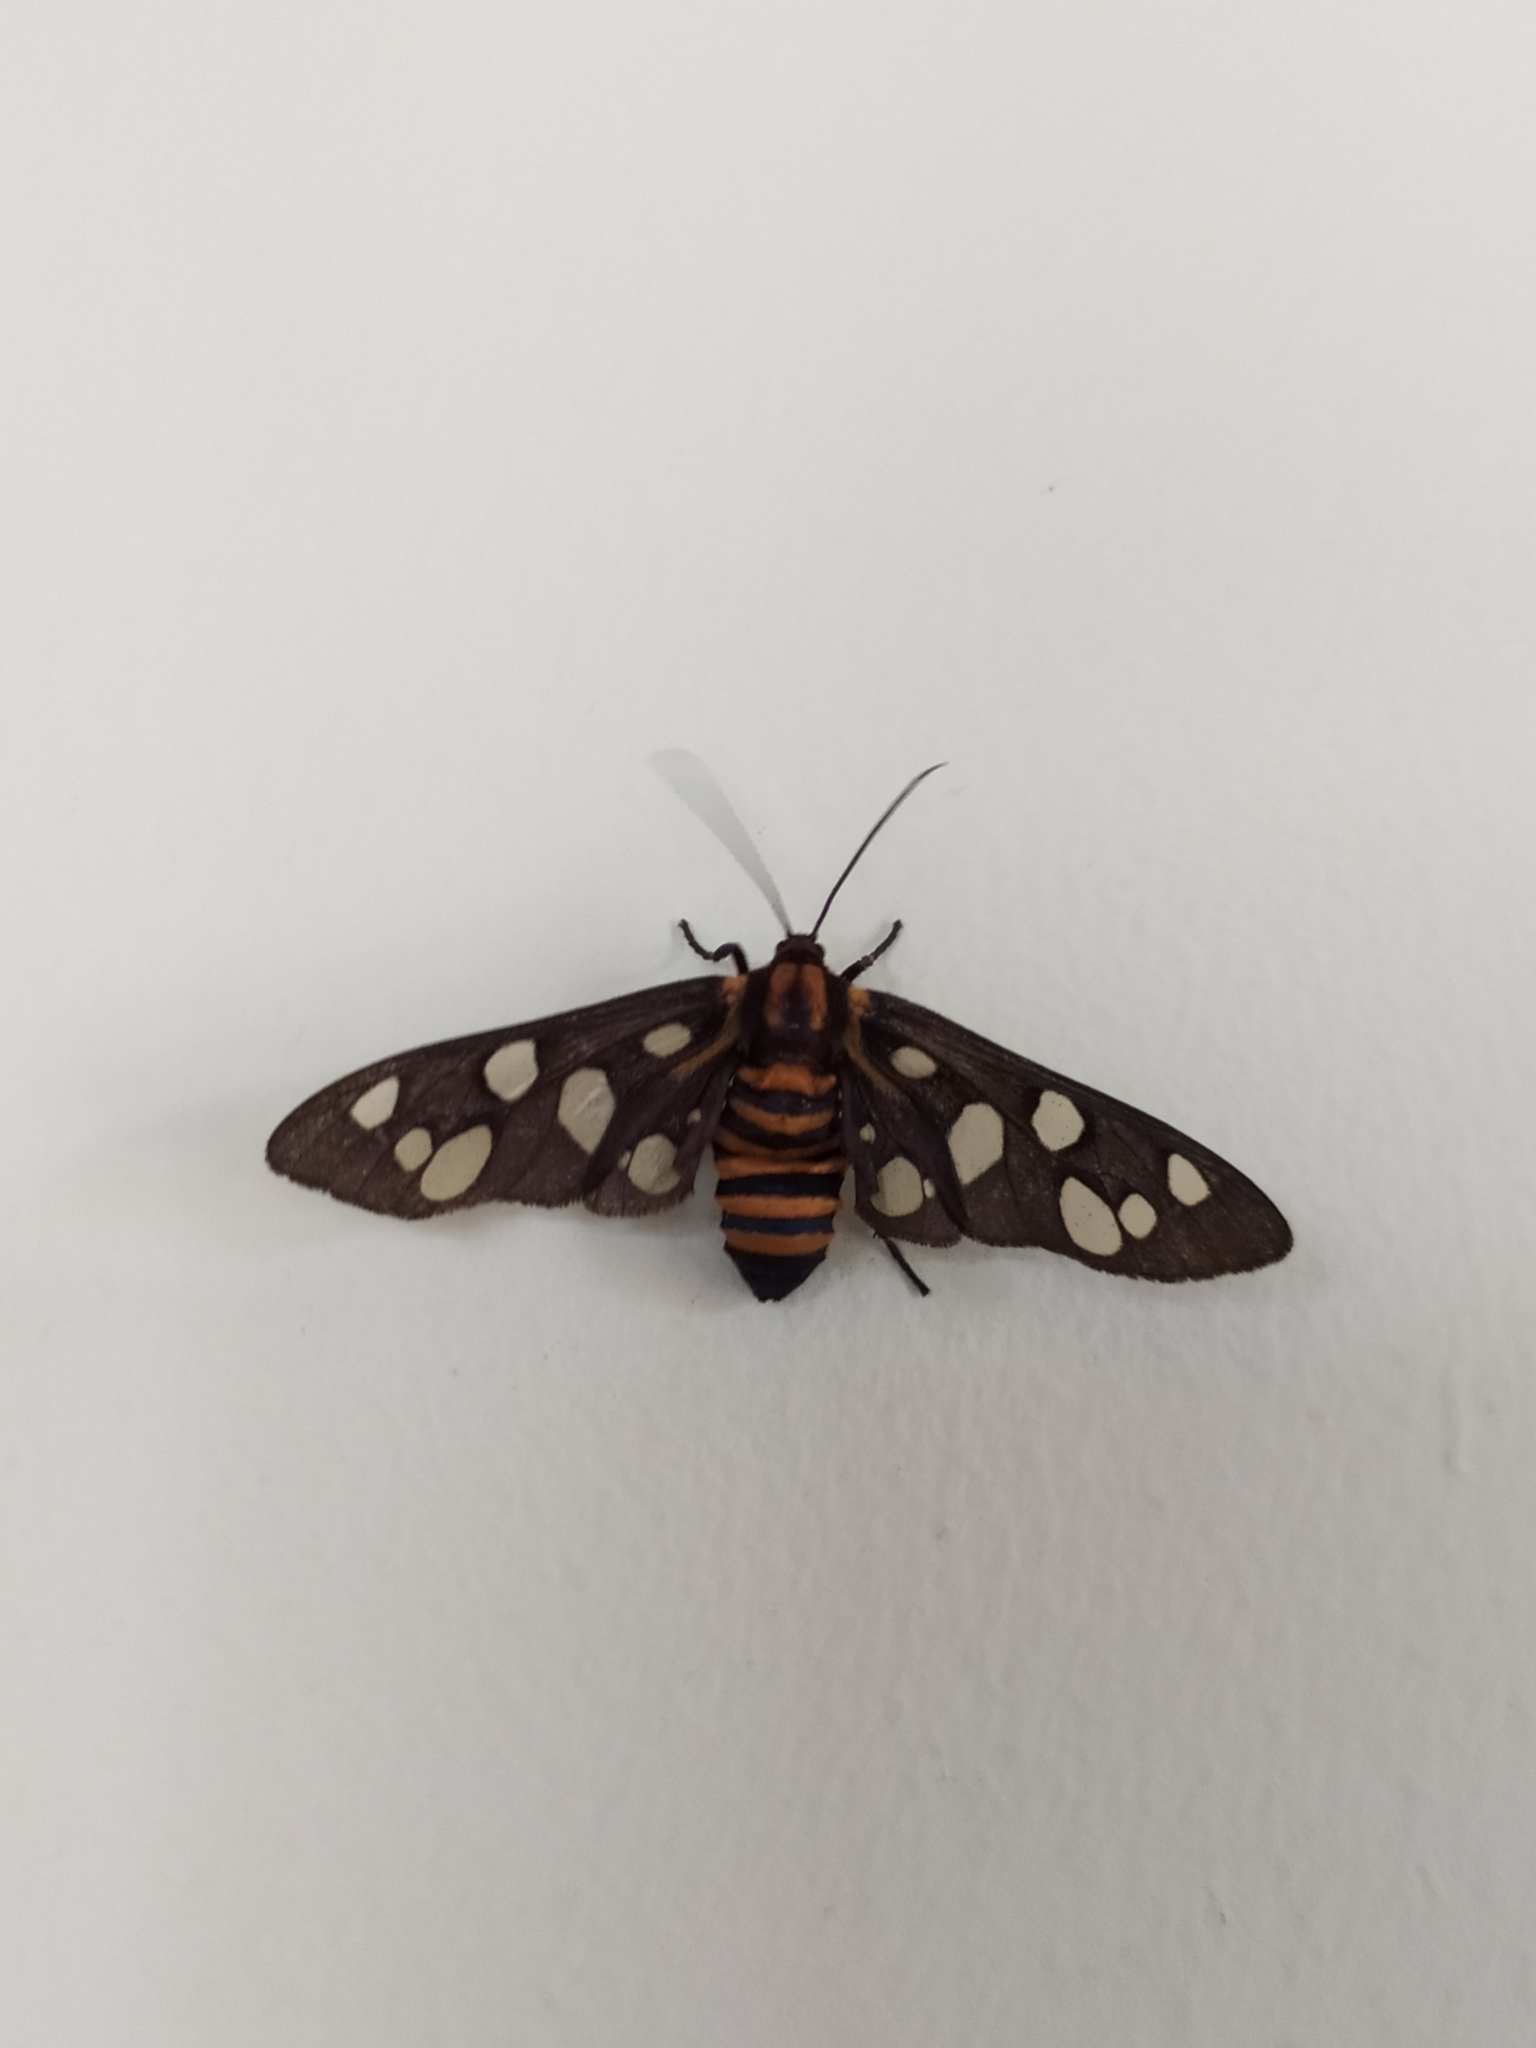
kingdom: Animalia
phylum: Arthropoda
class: Insecta
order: Lepidoptera
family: Erebidae
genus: Amata
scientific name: Amata passalis
